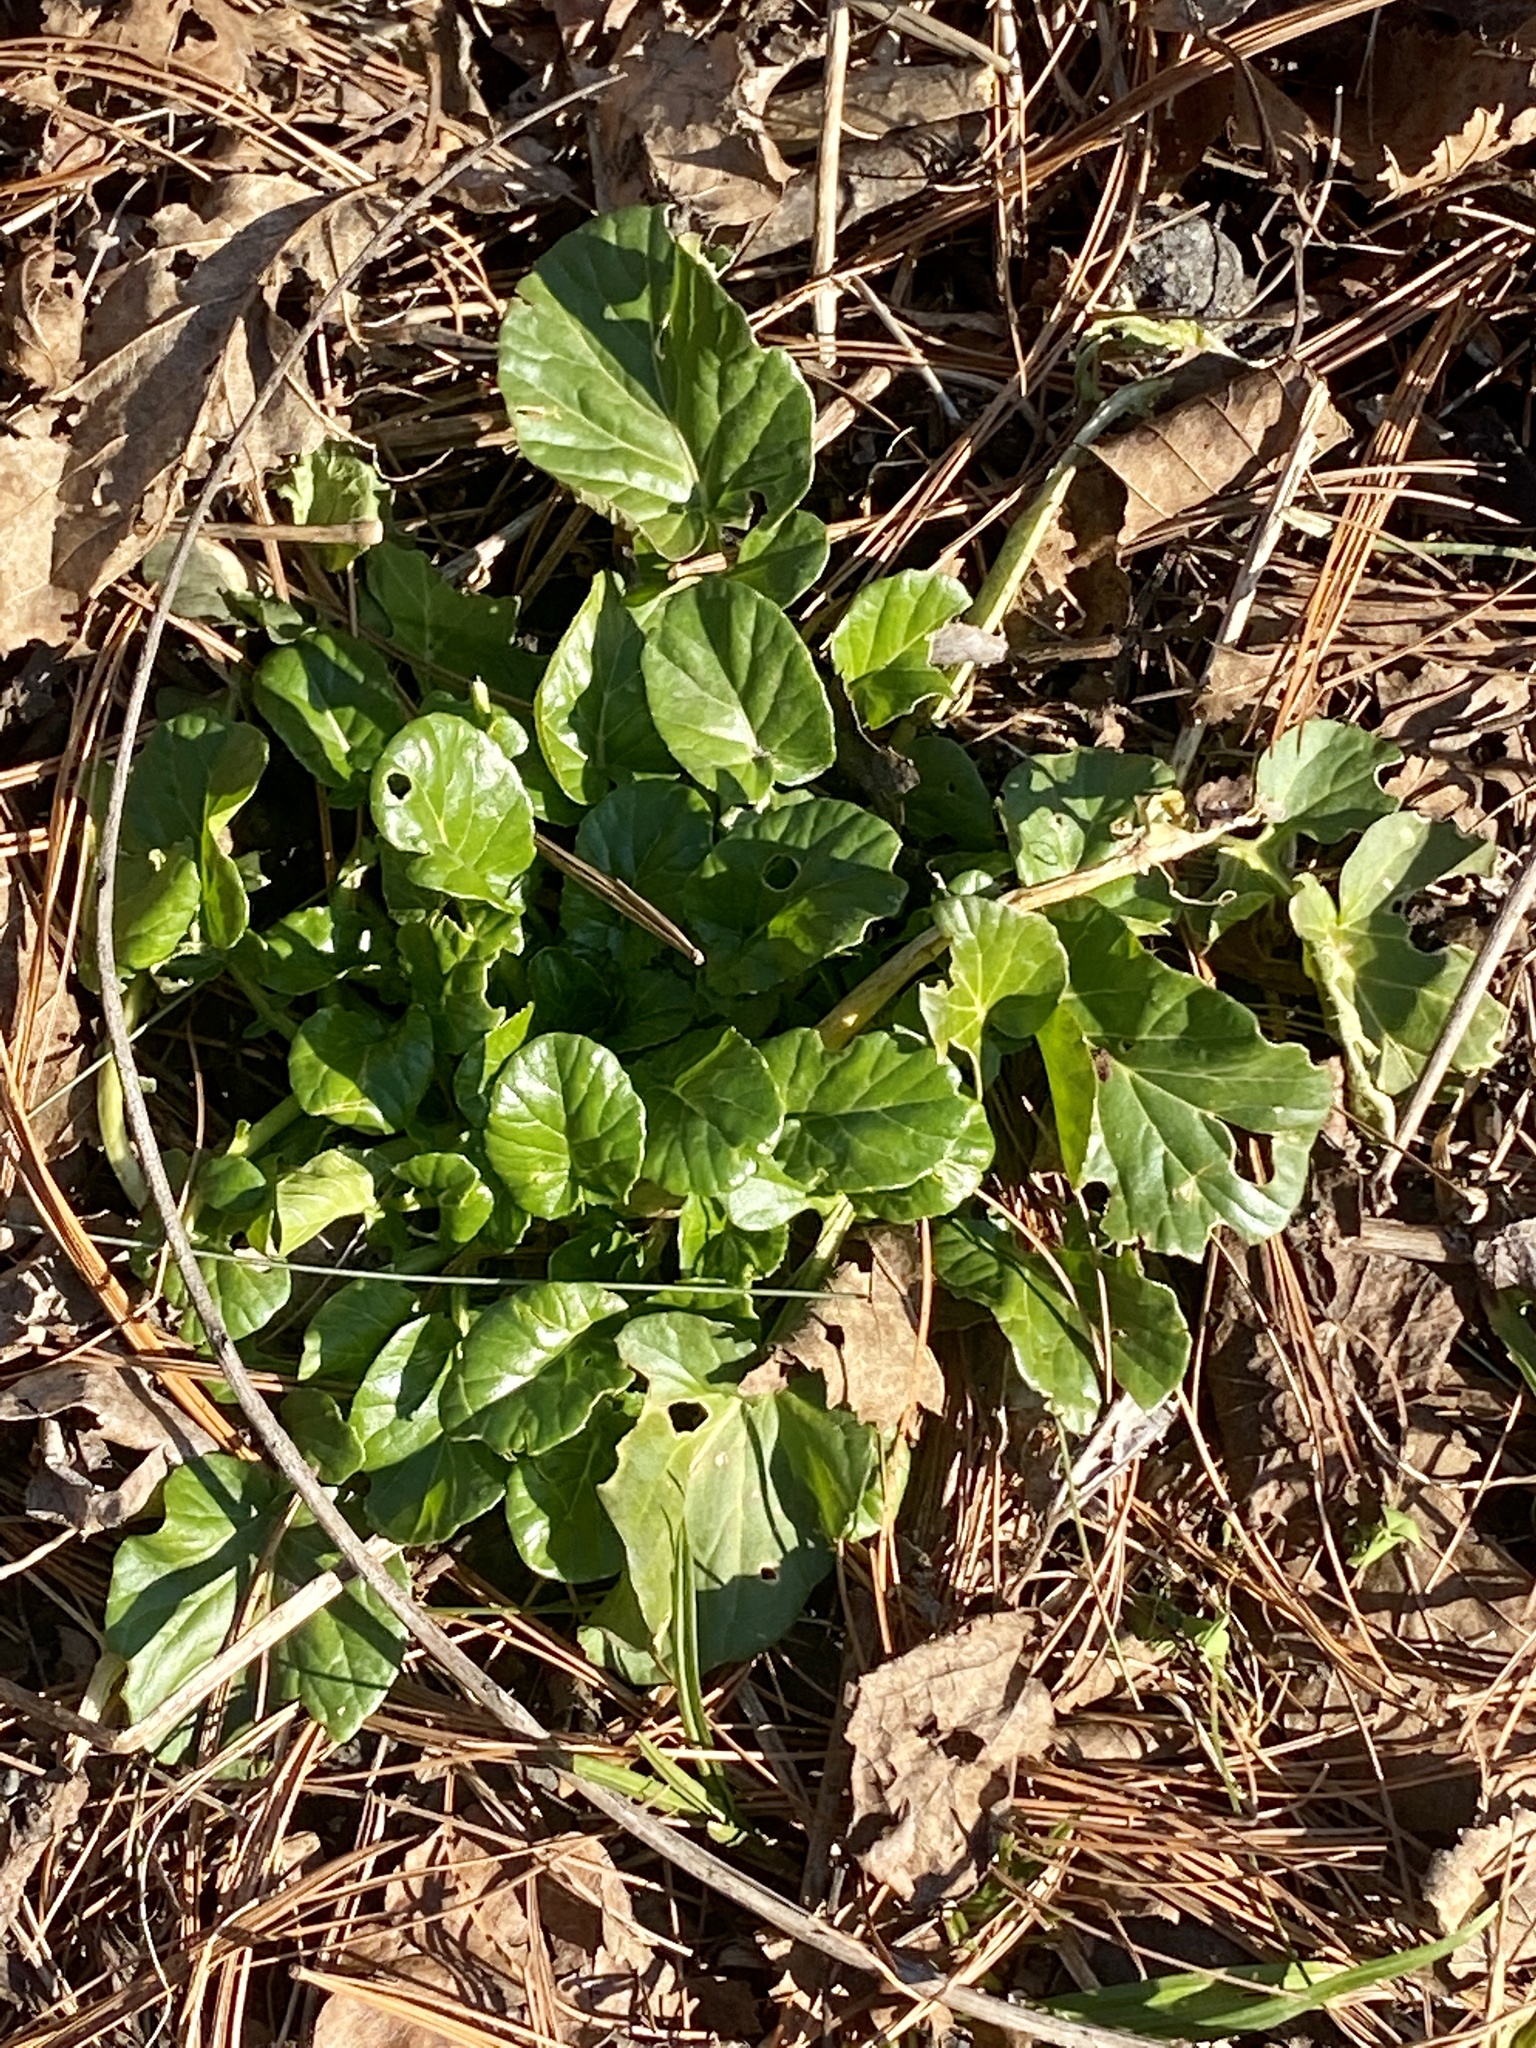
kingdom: Plantae
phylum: Tracheophyta
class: Magnoliopsida
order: Brassicales
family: Brassicaceae
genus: Barbarea
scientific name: Barbarea vulgaris
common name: Cressy-greens
